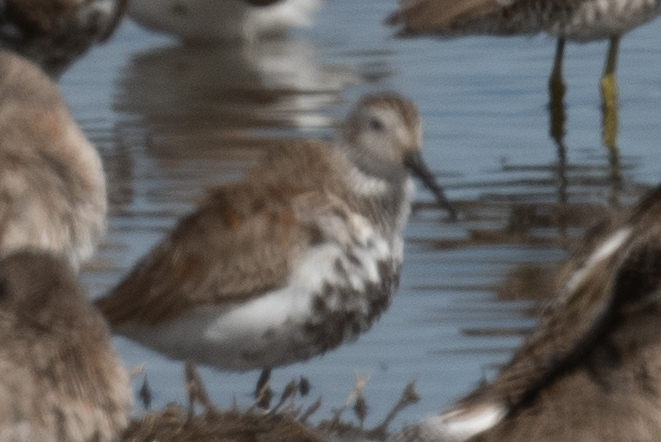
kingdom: Animalia
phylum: Chordata
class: Aves
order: Charadriiformes
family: Scolopacidae
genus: Calidris
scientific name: Calidris alpina
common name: Dunlin
